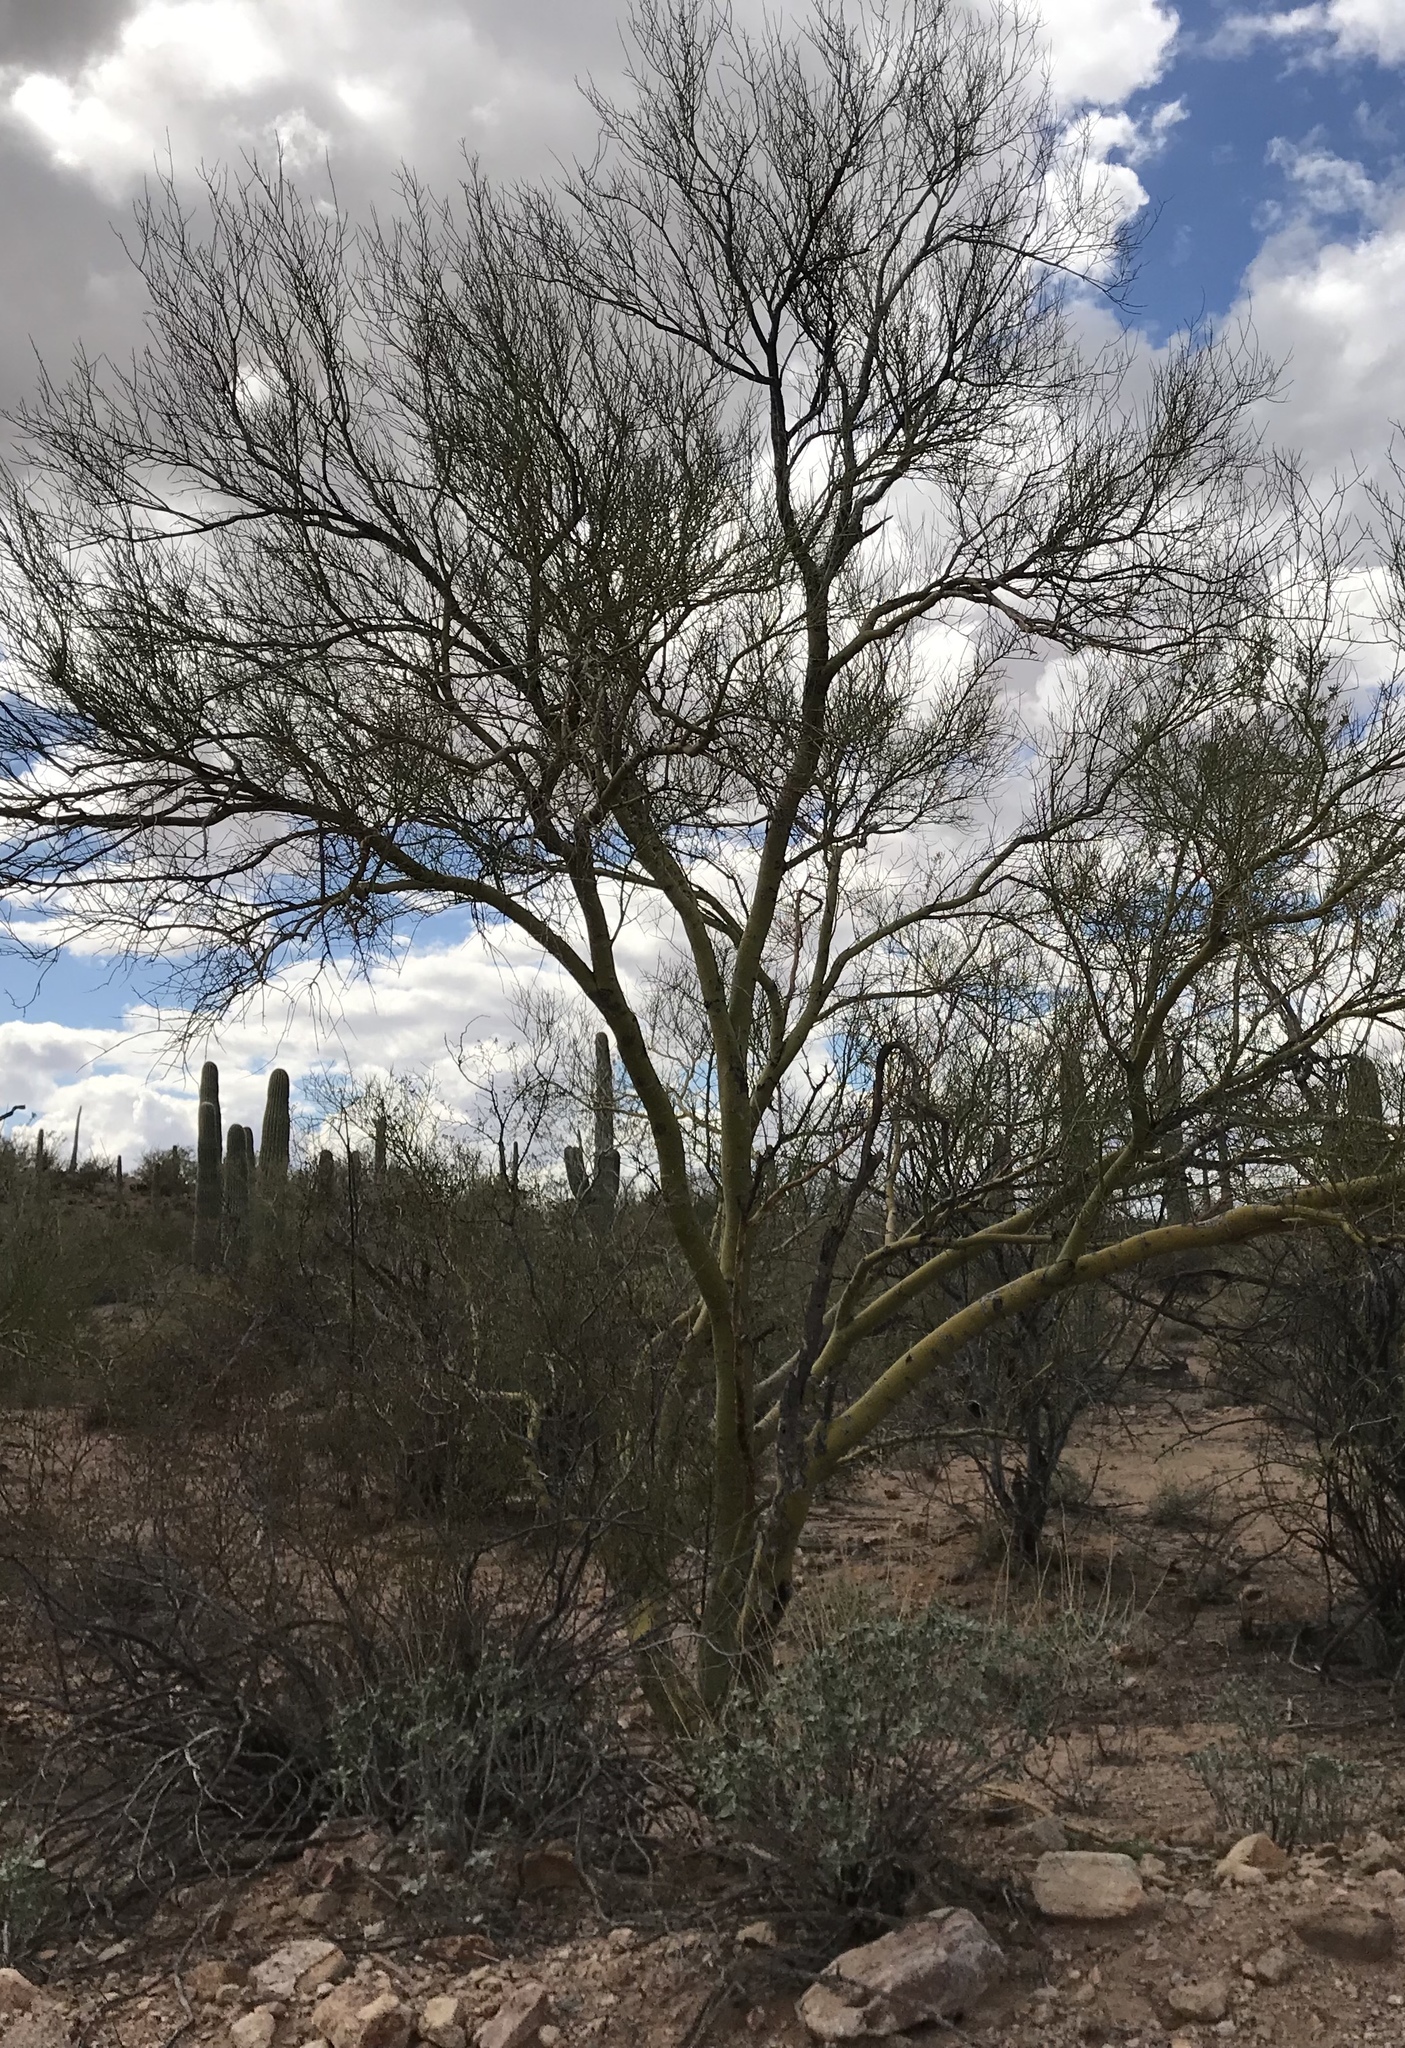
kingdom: Plantae
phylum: Tracheophyta
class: Magnoliopsida
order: Fabales
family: Fabaceae
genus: Parkinsonia
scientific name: Parkinsonia microphylla
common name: Yellow paloverde
